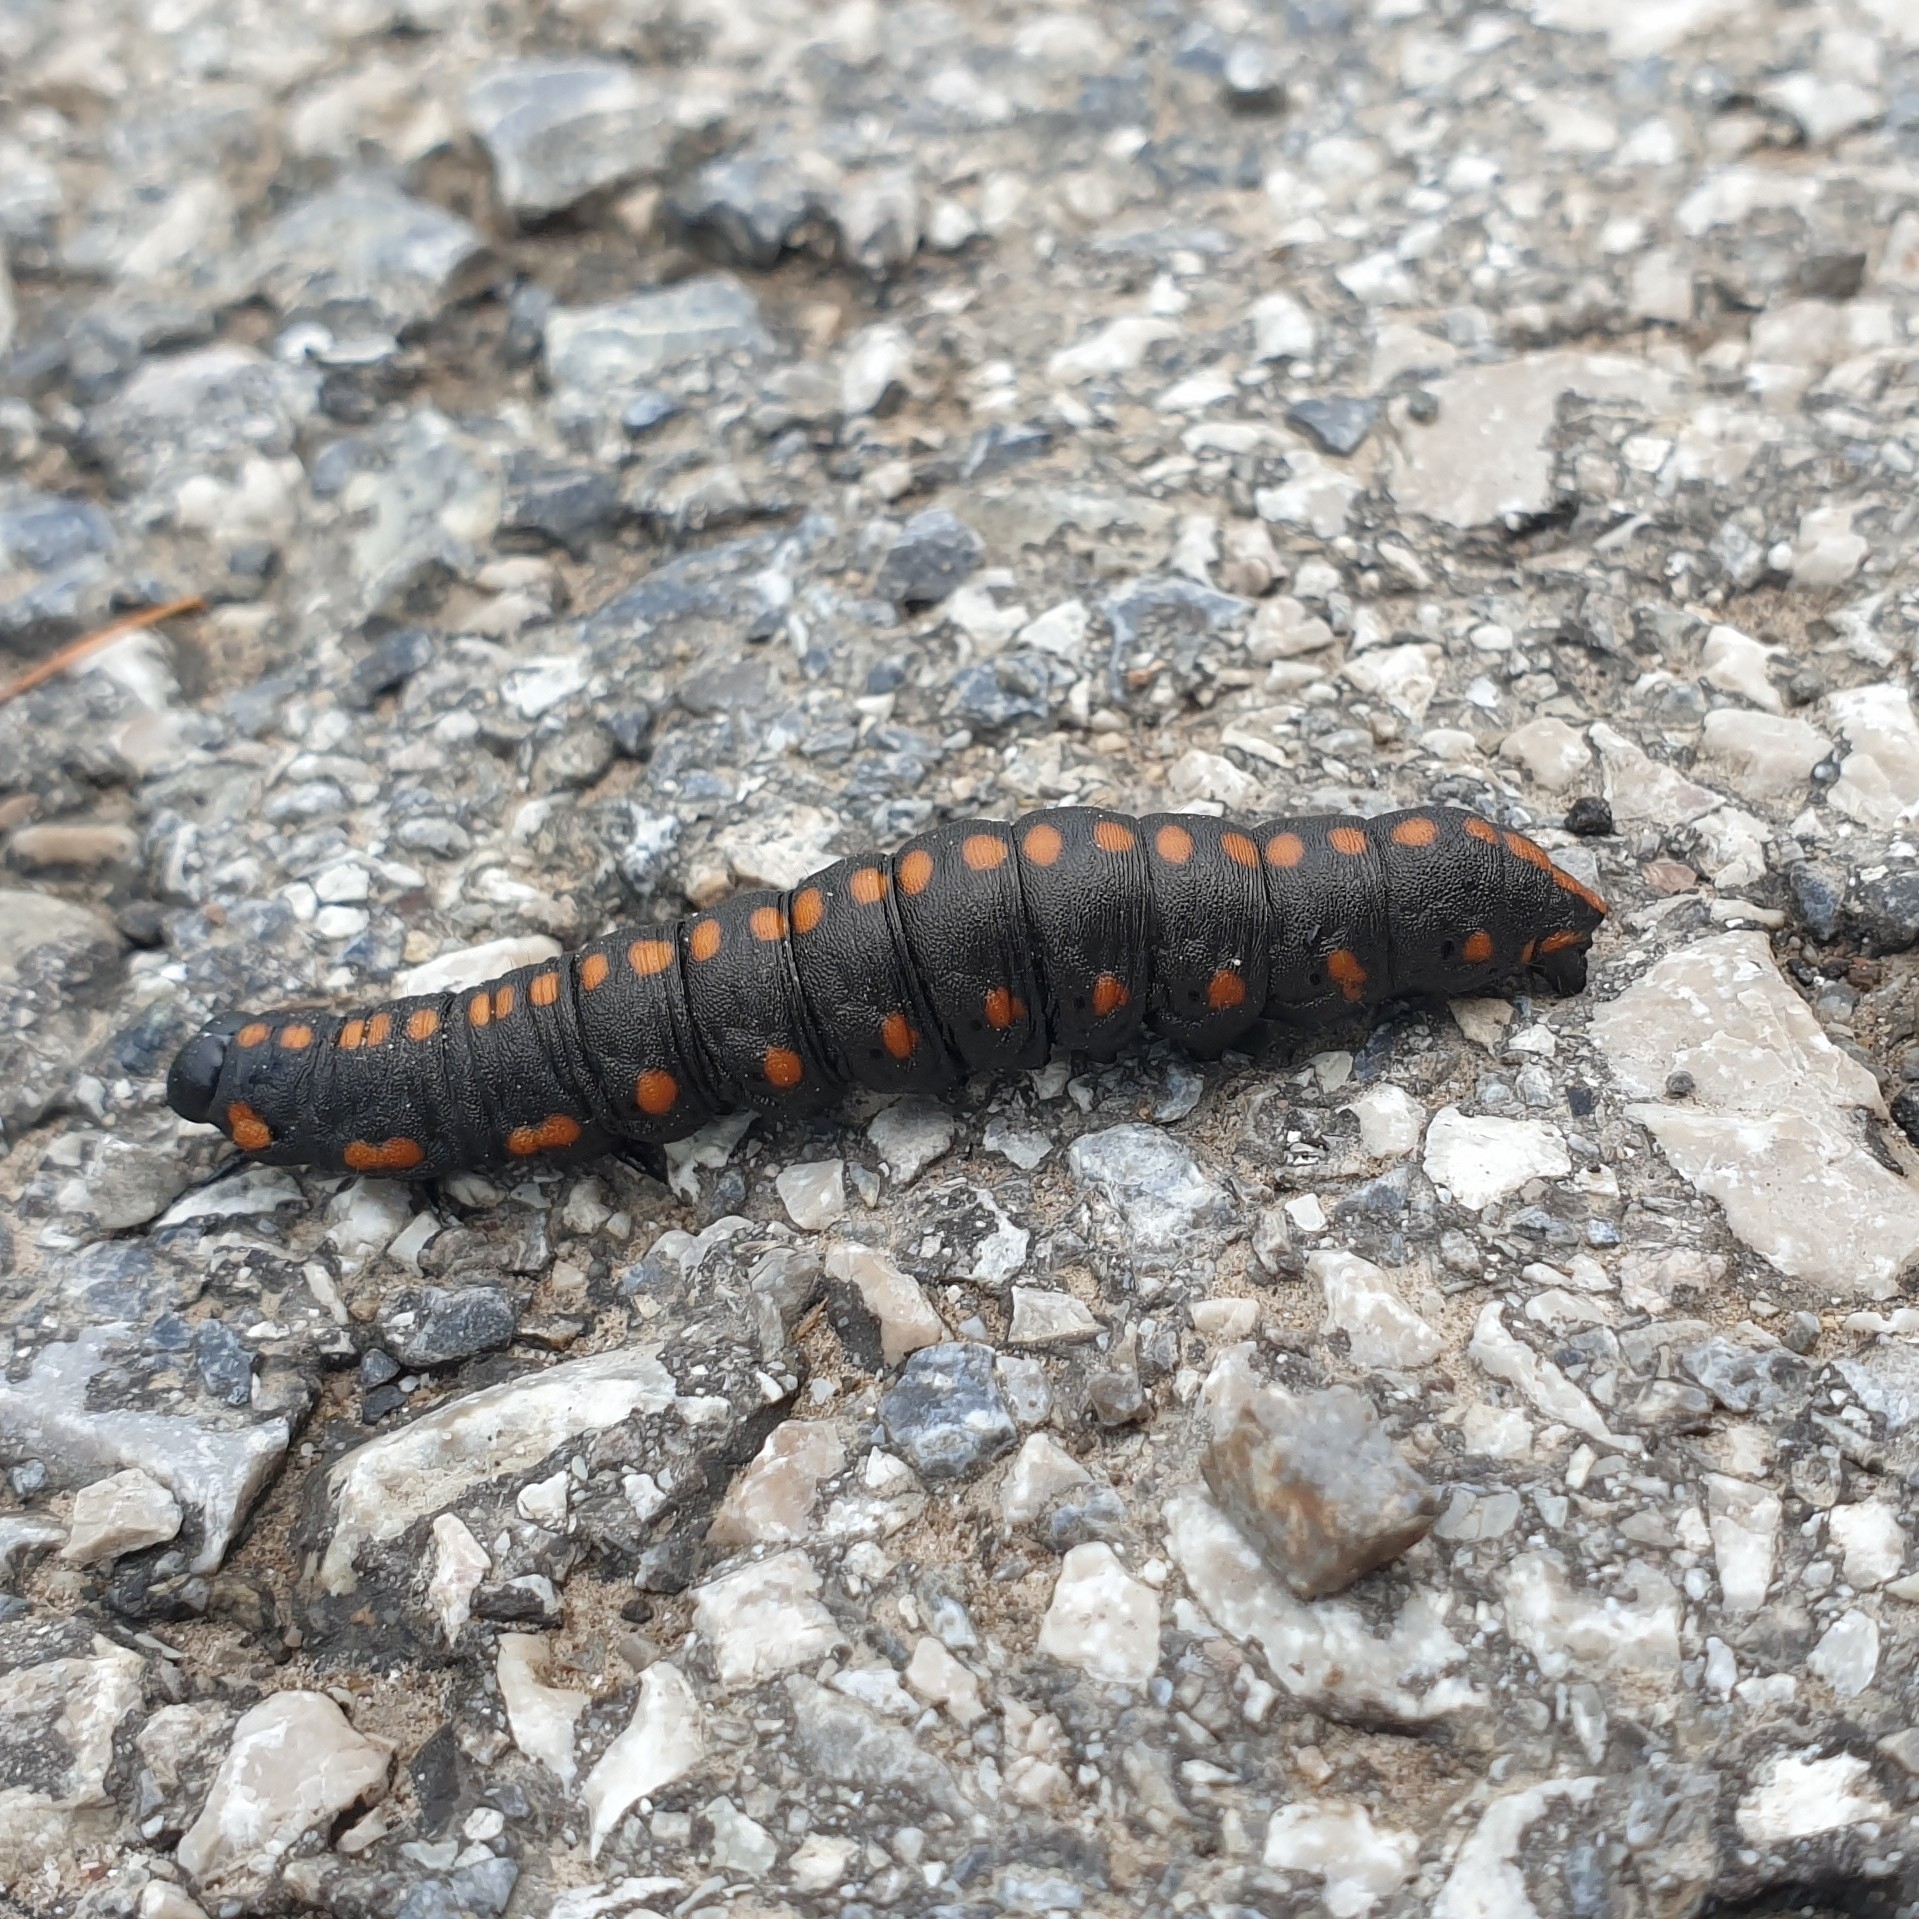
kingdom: Animalia
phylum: Arthropoda
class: Insecta
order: Lepidoptera
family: Noctuidae
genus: Cucullia
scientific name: Cucullia lucifuga
